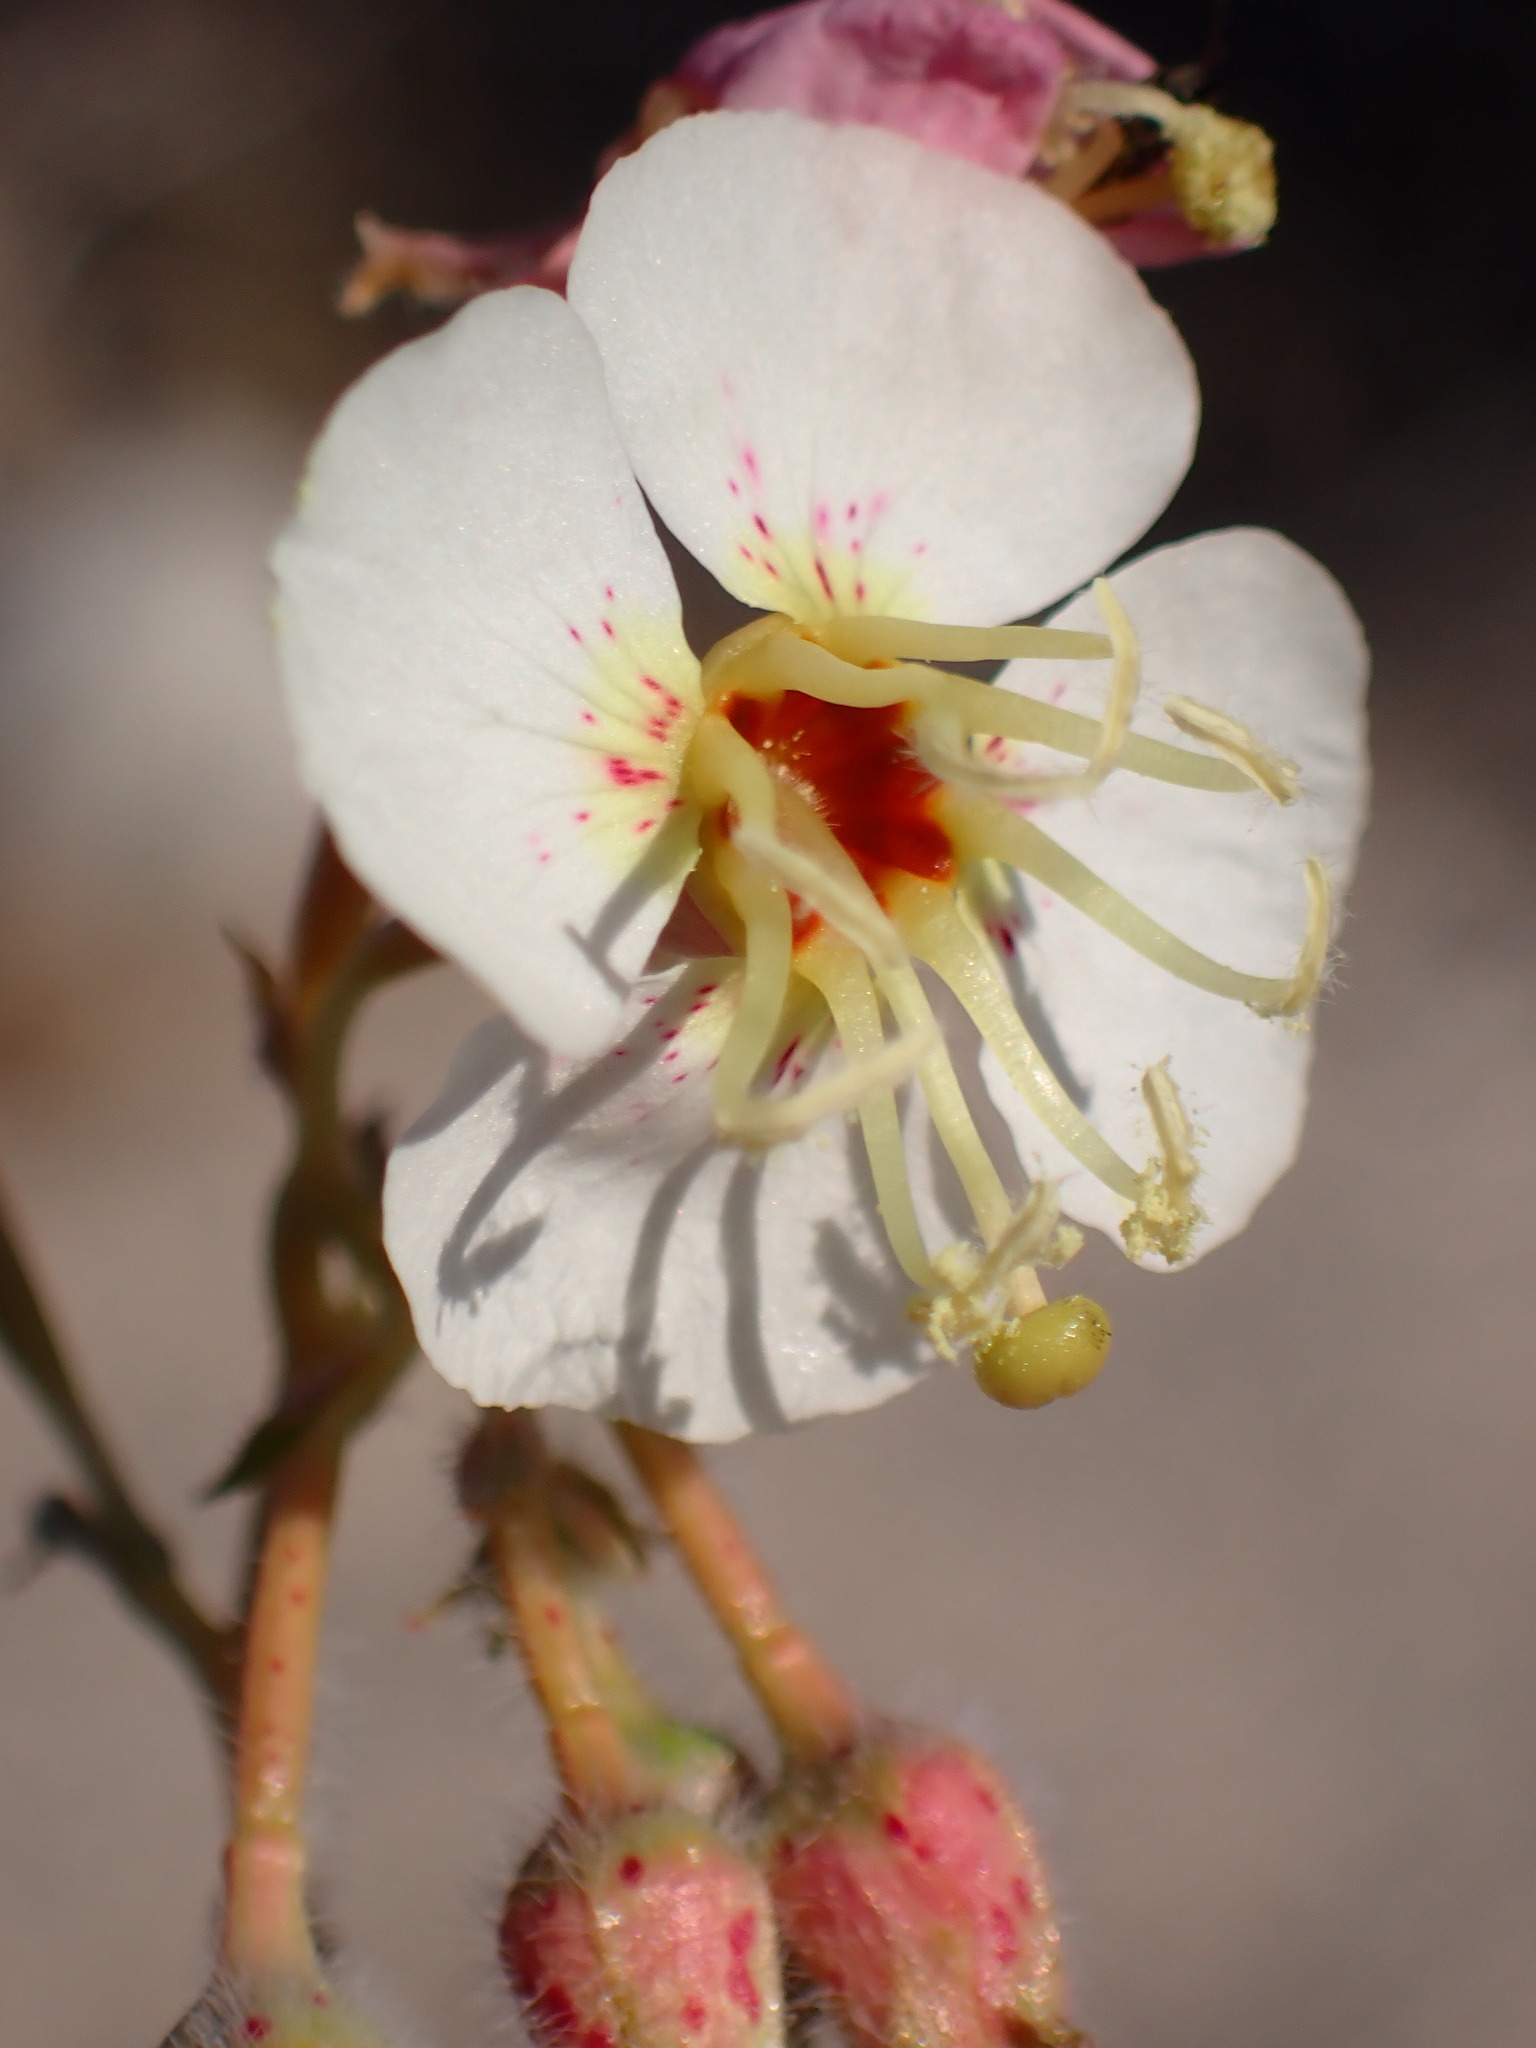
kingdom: Plantae
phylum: Tracheophyta
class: Magnoliopsida
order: Myrtales
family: Onagraceae
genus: Chylismia
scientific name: Chylismia claviformis
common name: Browneyes
